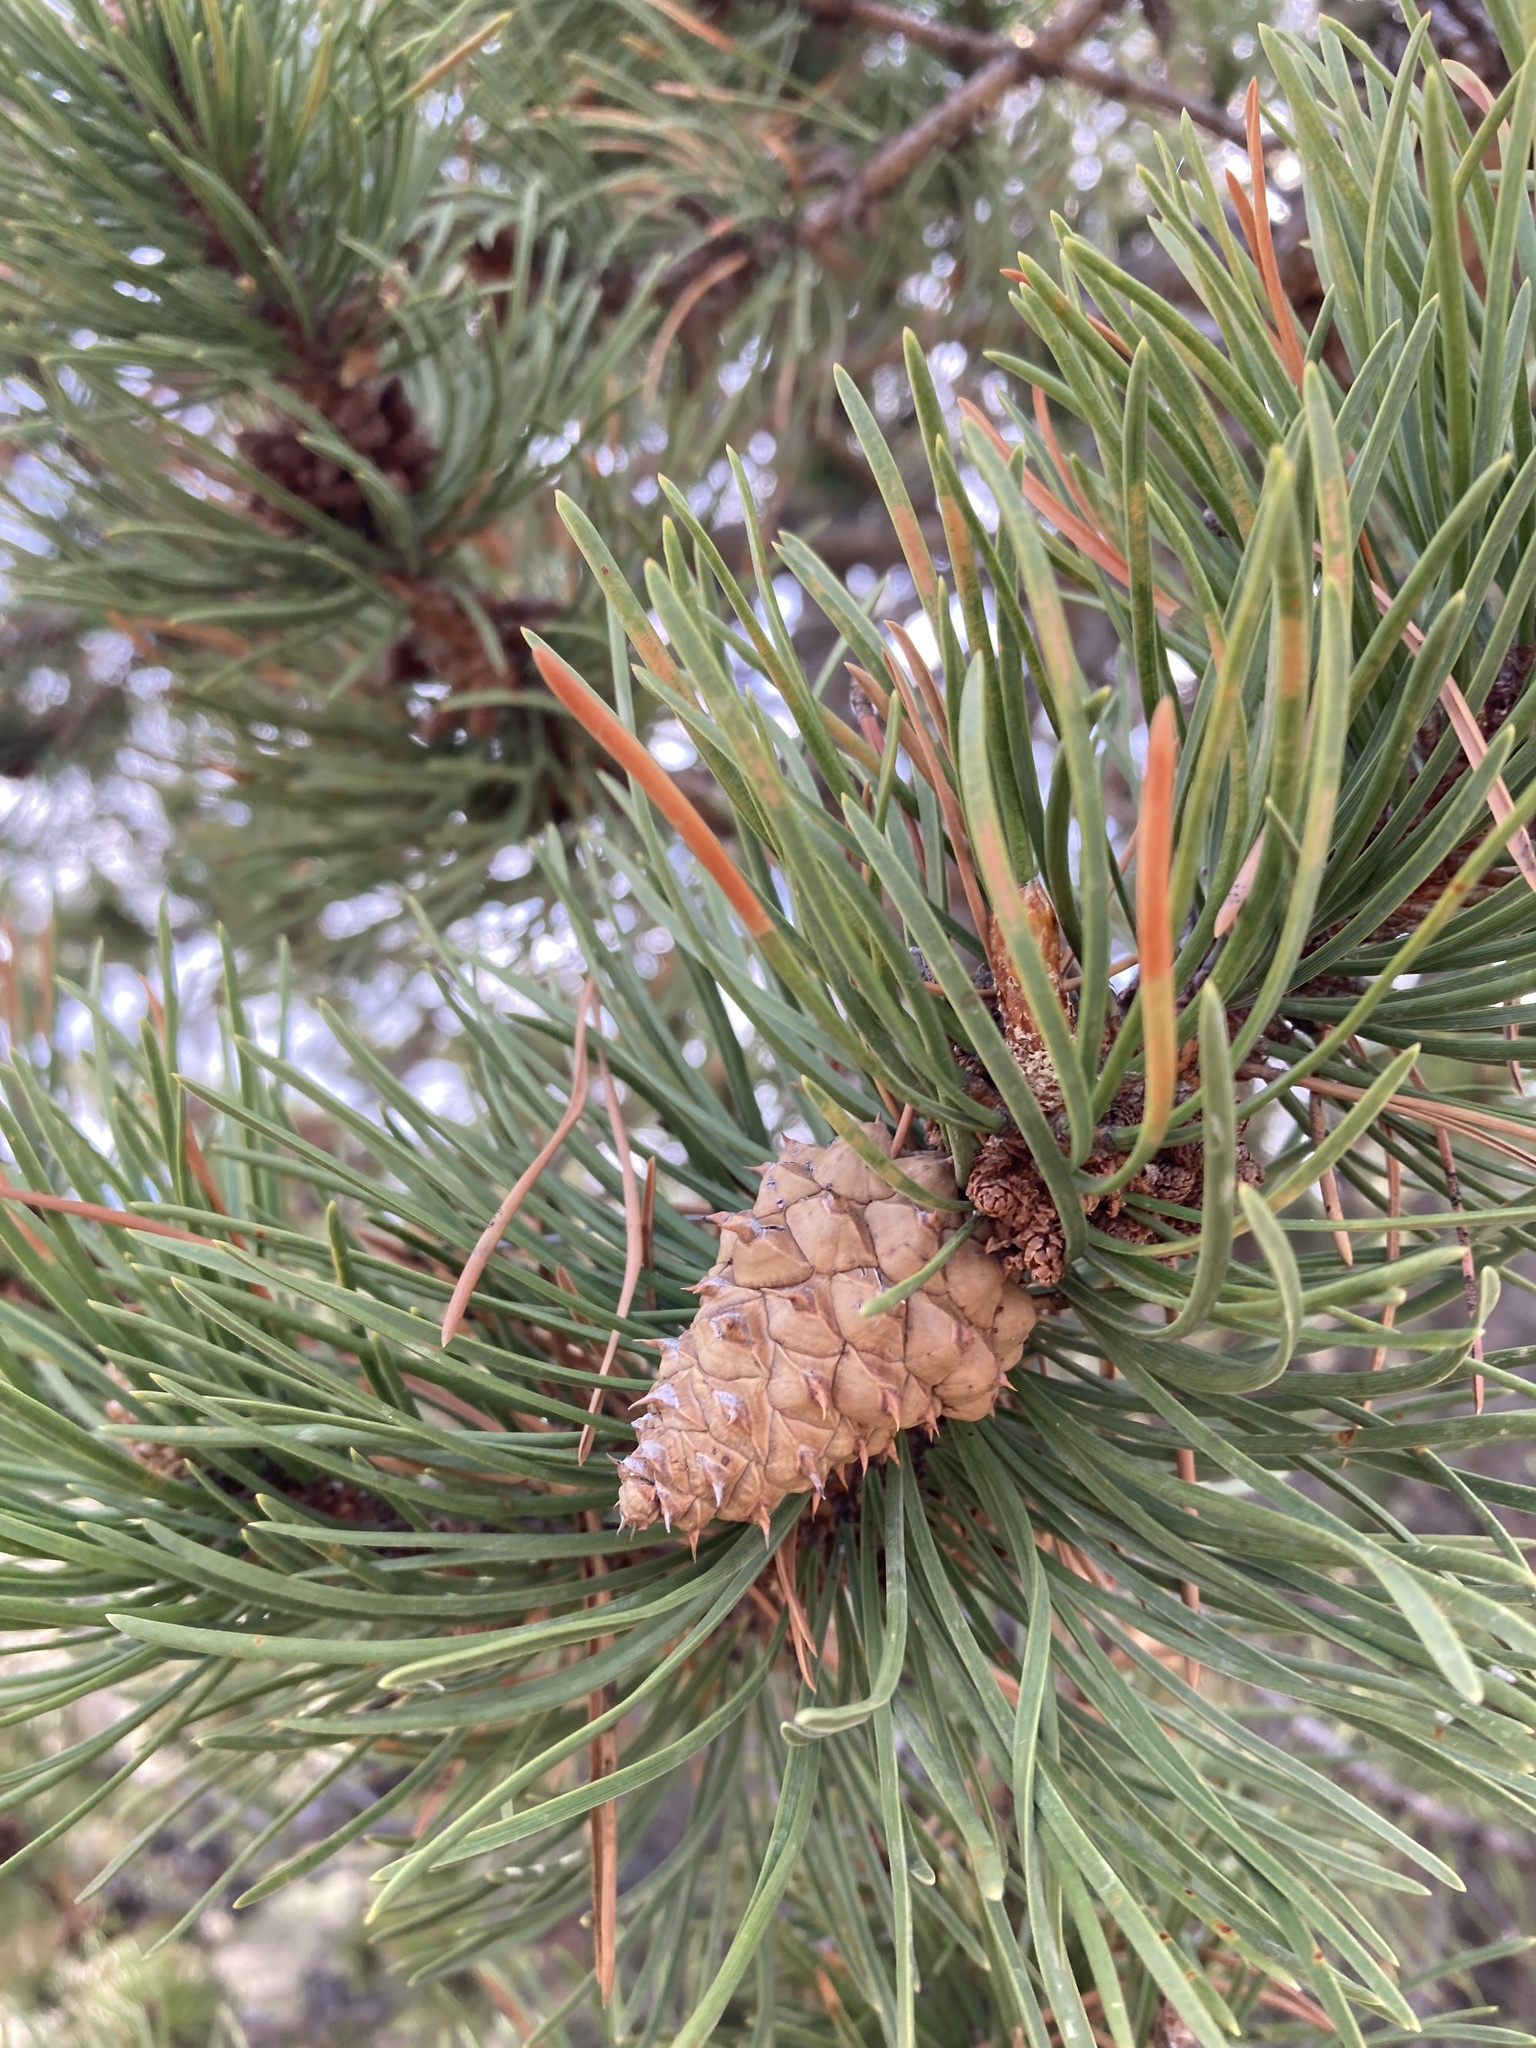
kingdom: Plantae
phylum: Tracheophyta
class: Pinopsida
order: Pinales
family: Pinaceae
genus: Pinus
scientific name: Pinus contorta
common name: Lodgepole pine
